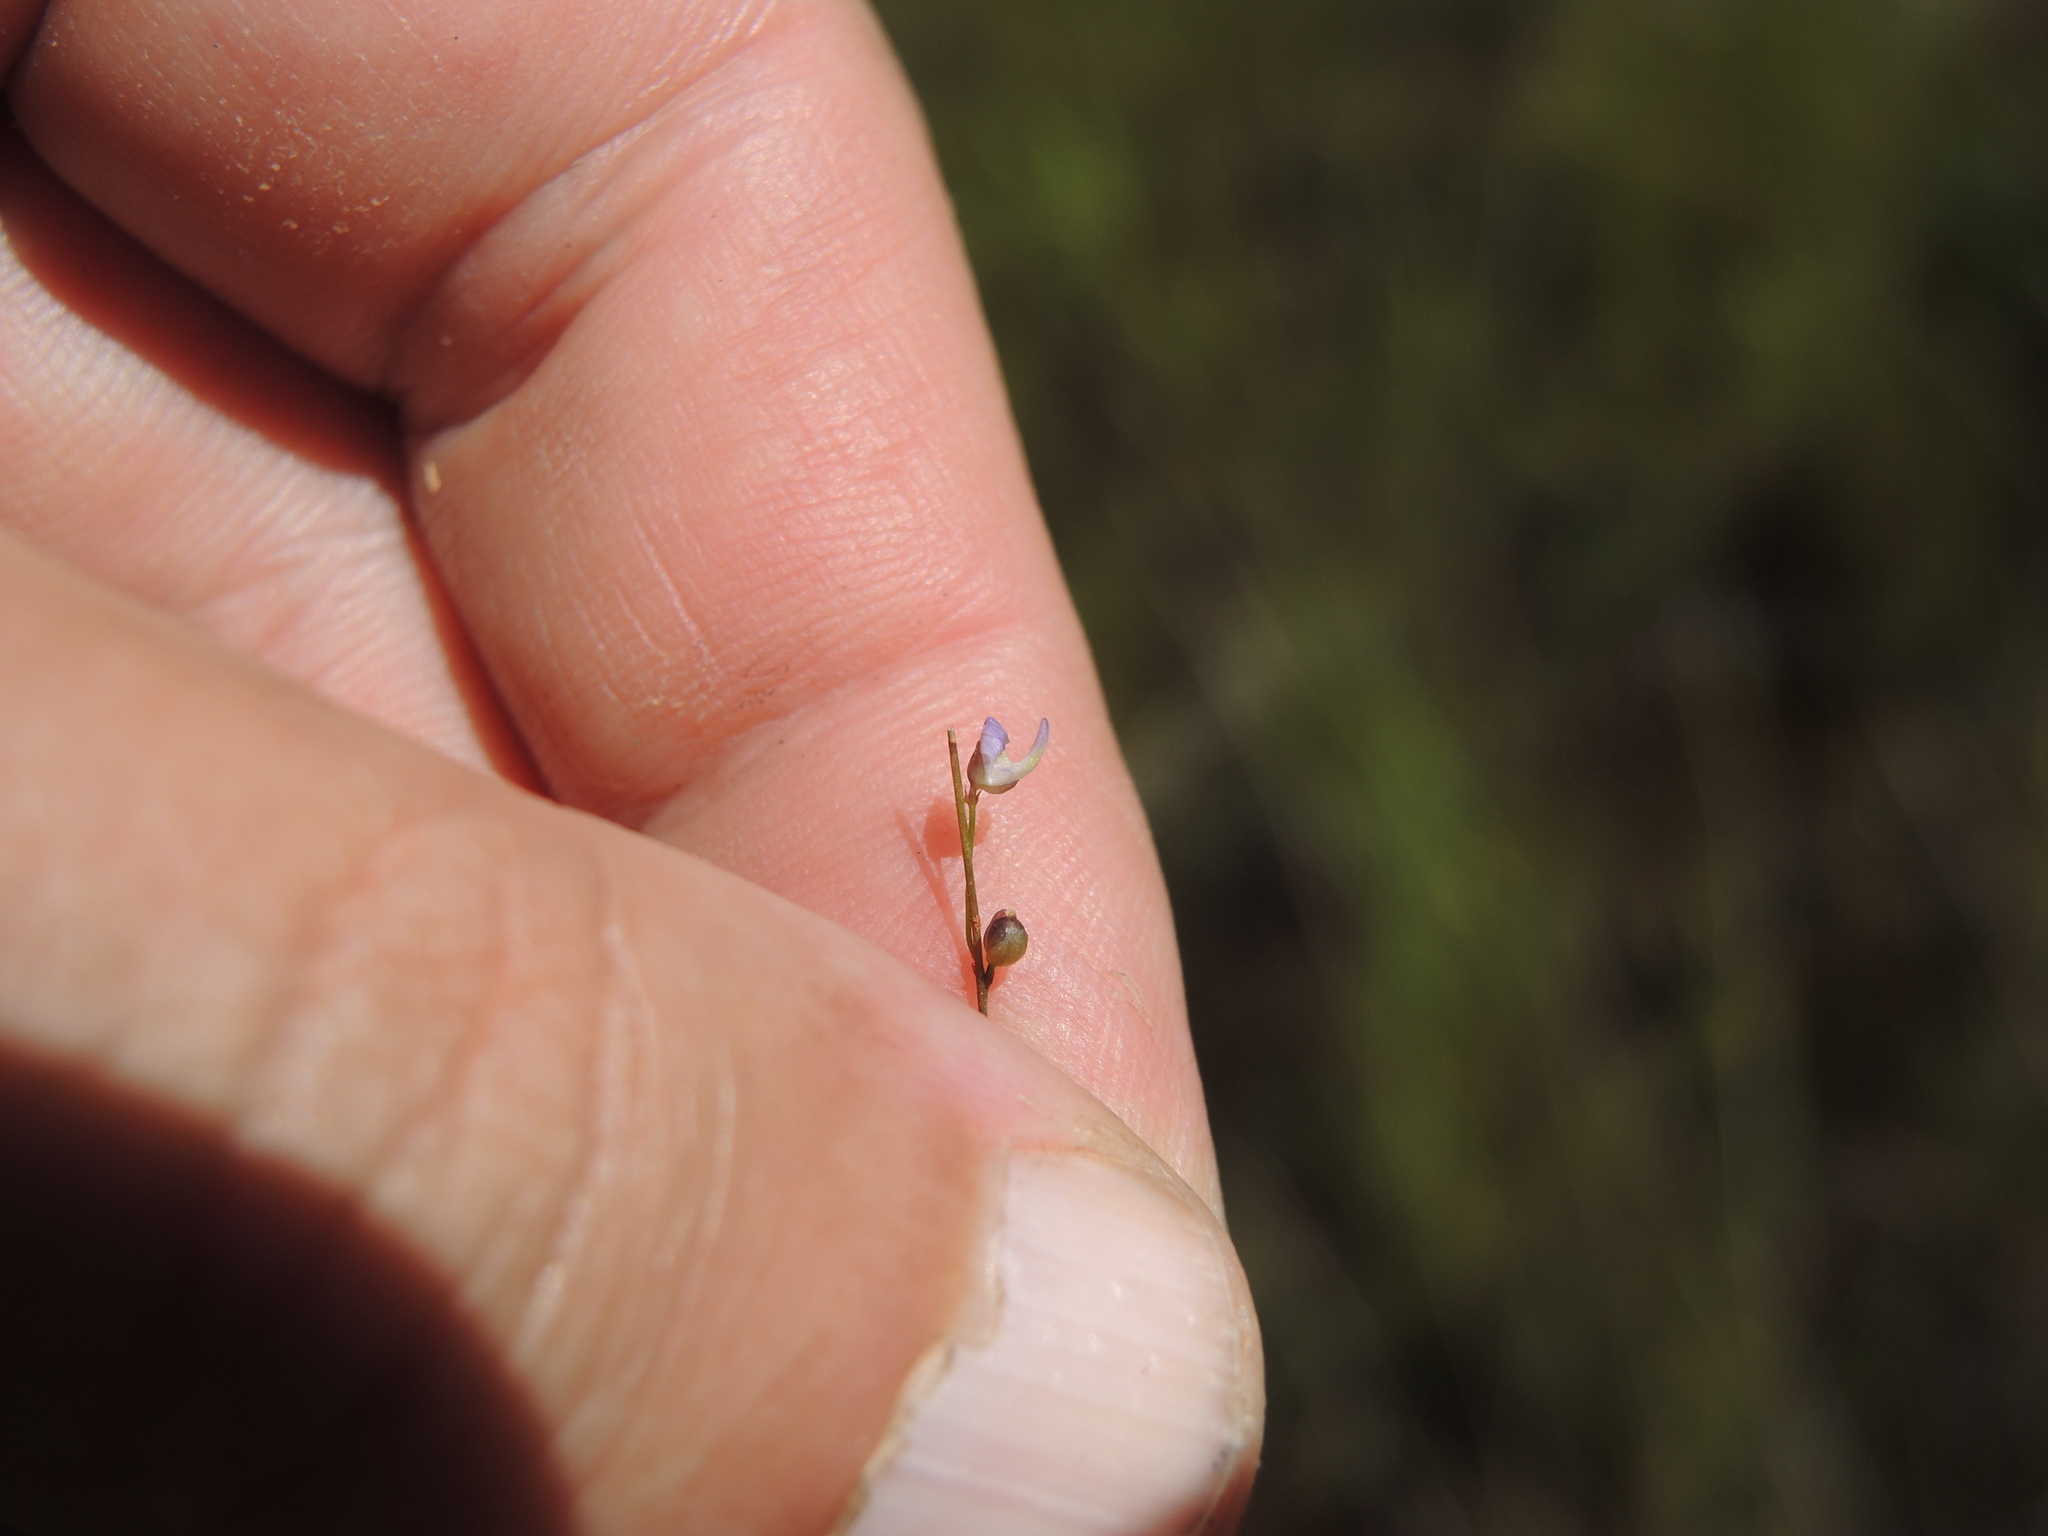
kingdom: Plantae
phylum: Tracheophyta
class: Magnoliopsida
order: Lamiales
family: Lentibulariaceae
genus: Utricularia
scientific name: Utricularia geoffrayi
